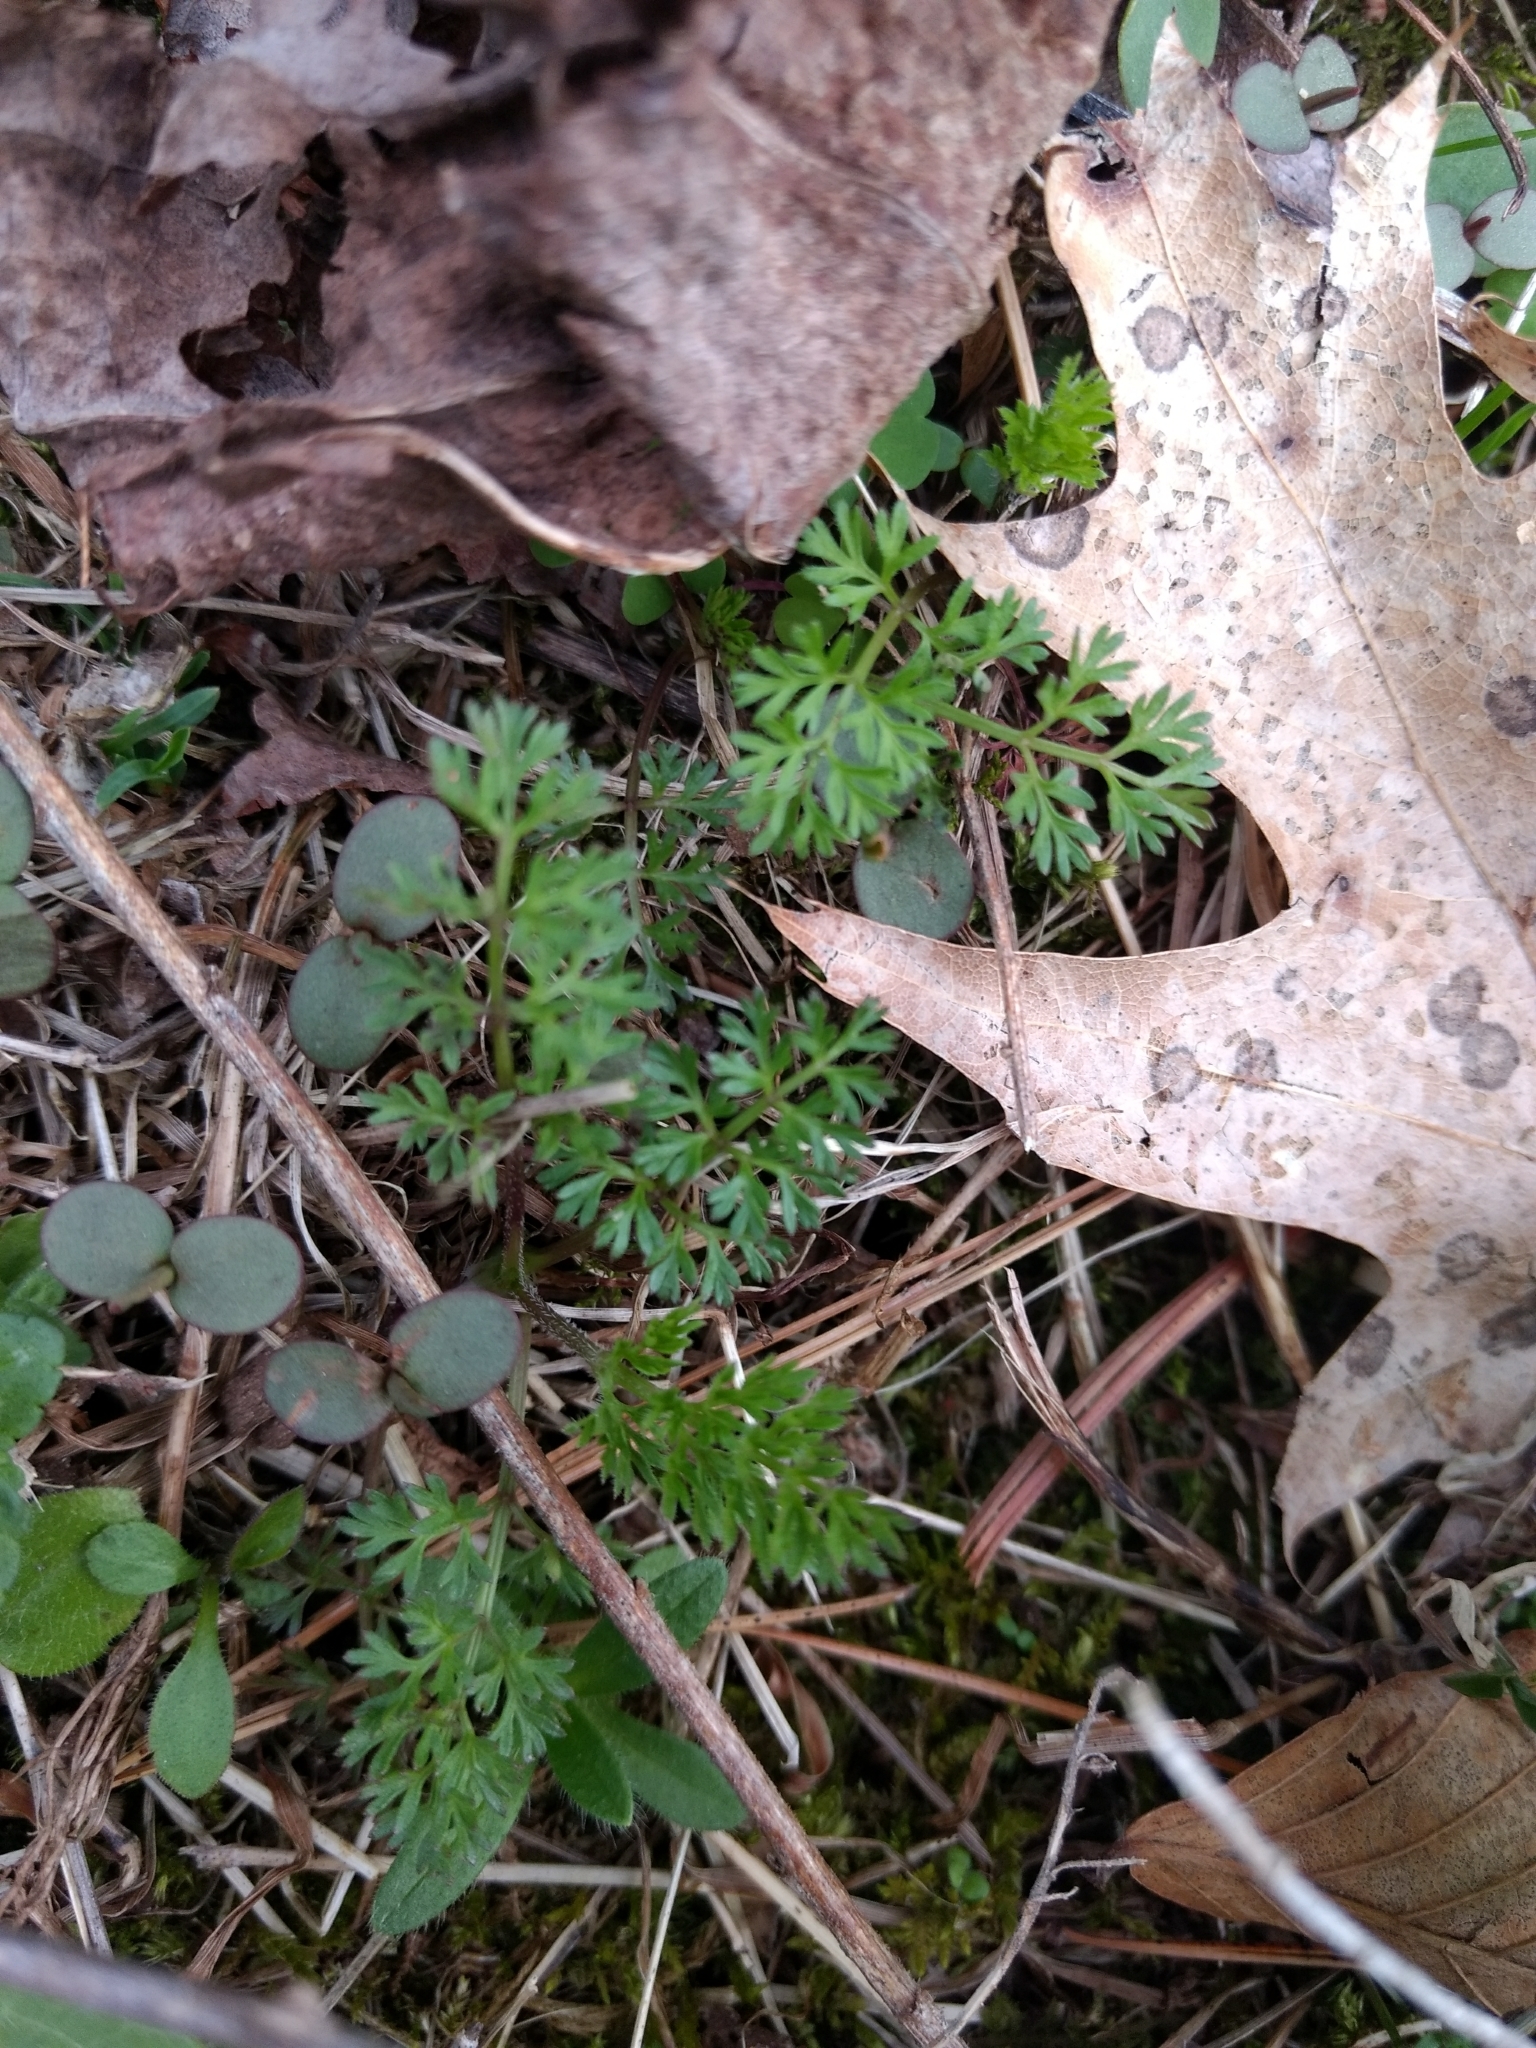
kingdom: Plantae
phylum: Tracheophyta
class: Magnoliopsida
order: Apiales
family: Apiaceae
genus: Daucus
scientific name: Daucus carota
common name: Wild carrot
